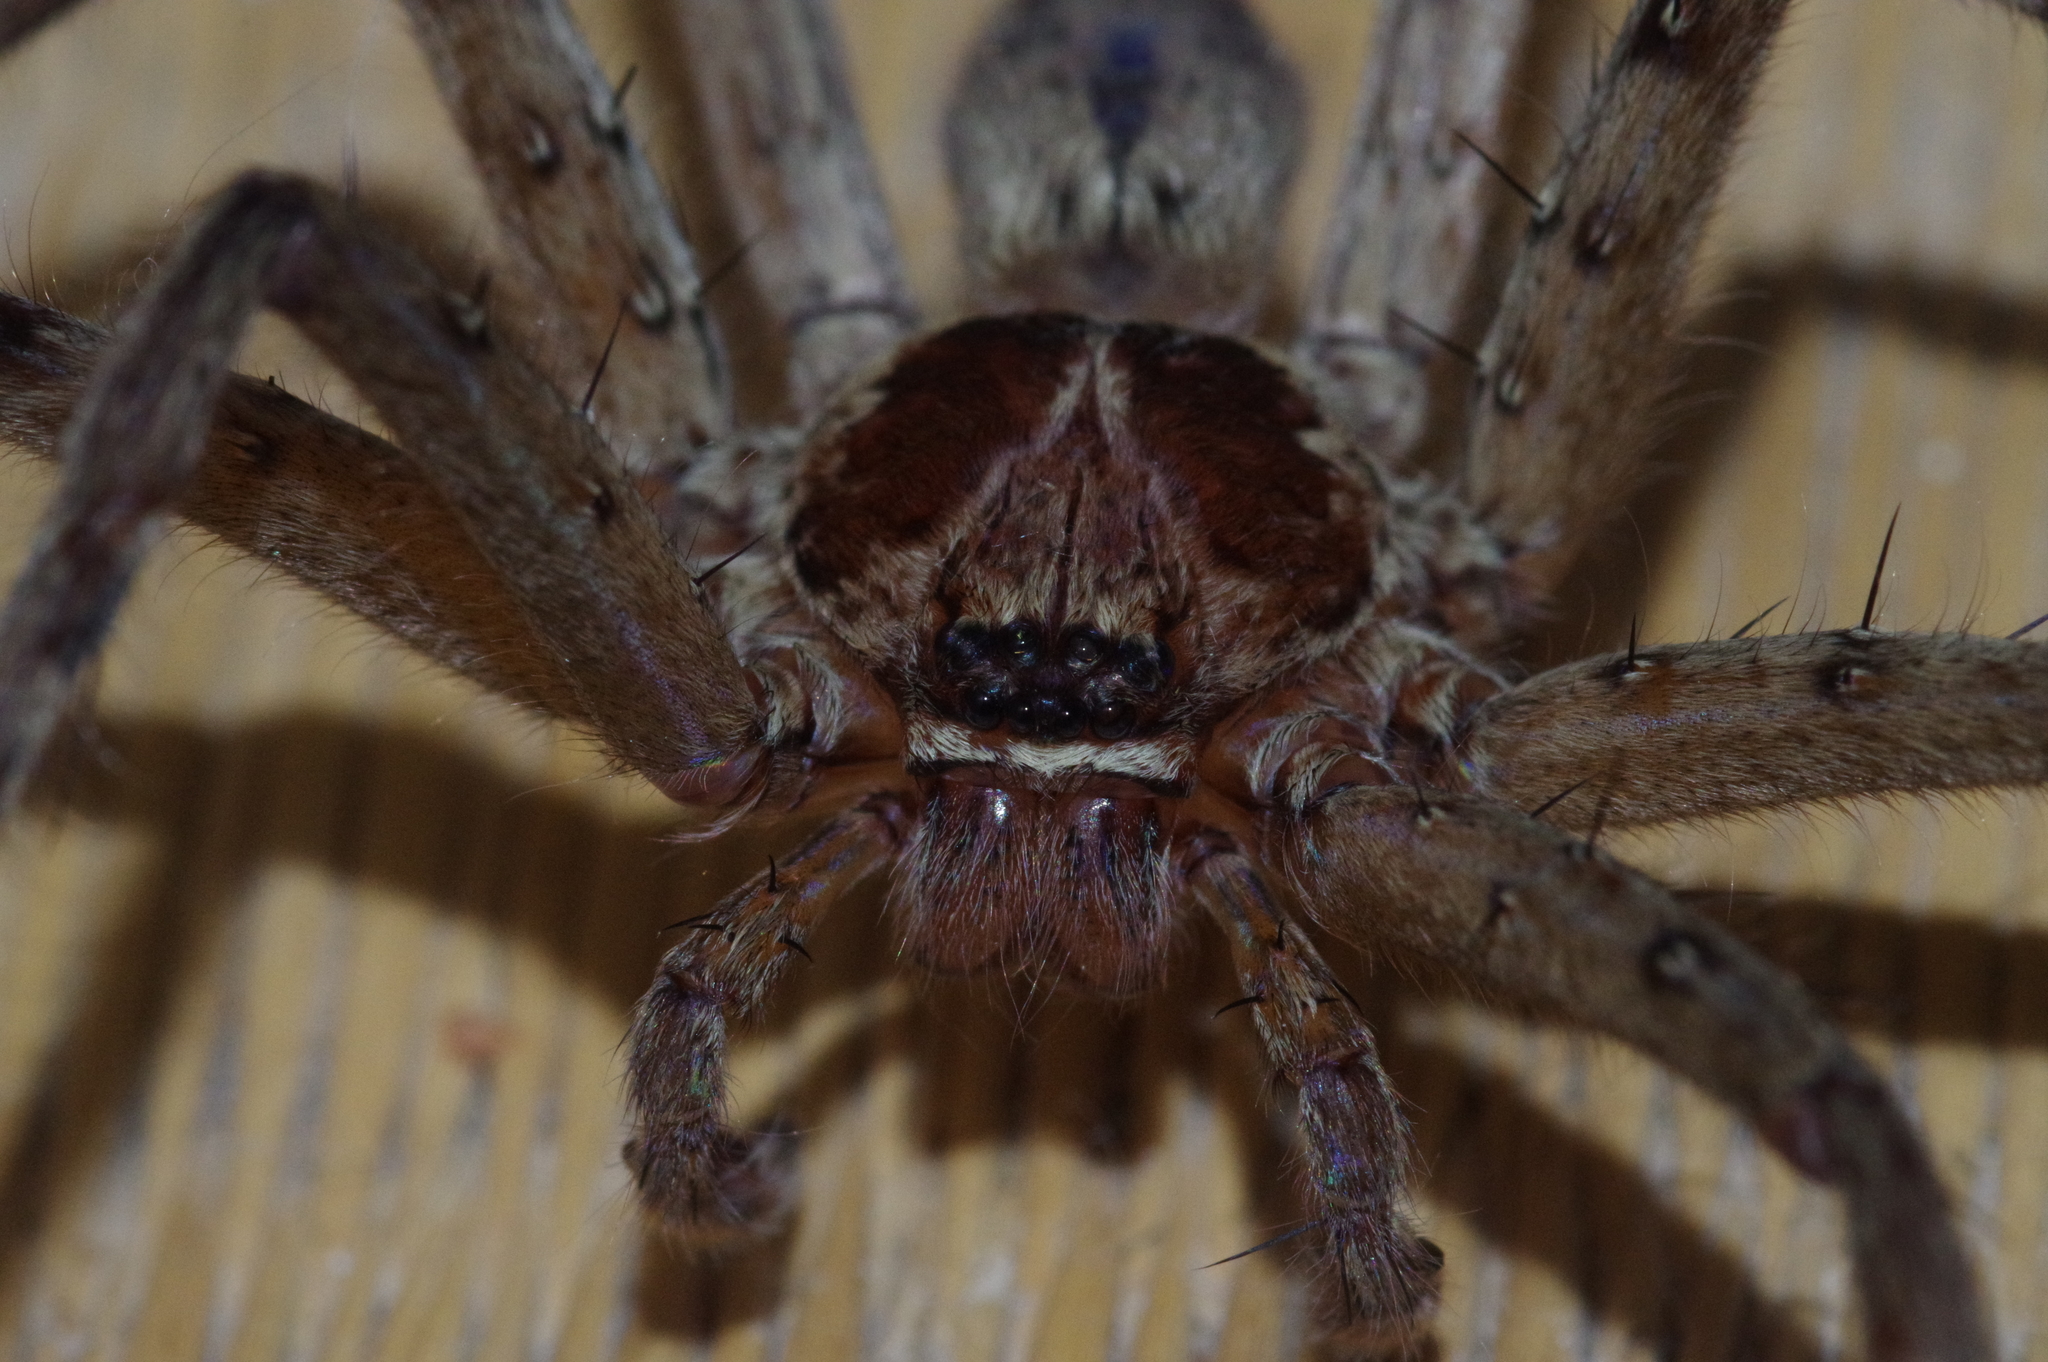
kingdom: Animalia
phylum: Arthropoda
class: Arachnida
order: Araneae
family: Sparassidae
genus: Heteropoda
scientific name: Heteropoda venatoria
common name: Huntsman spider
